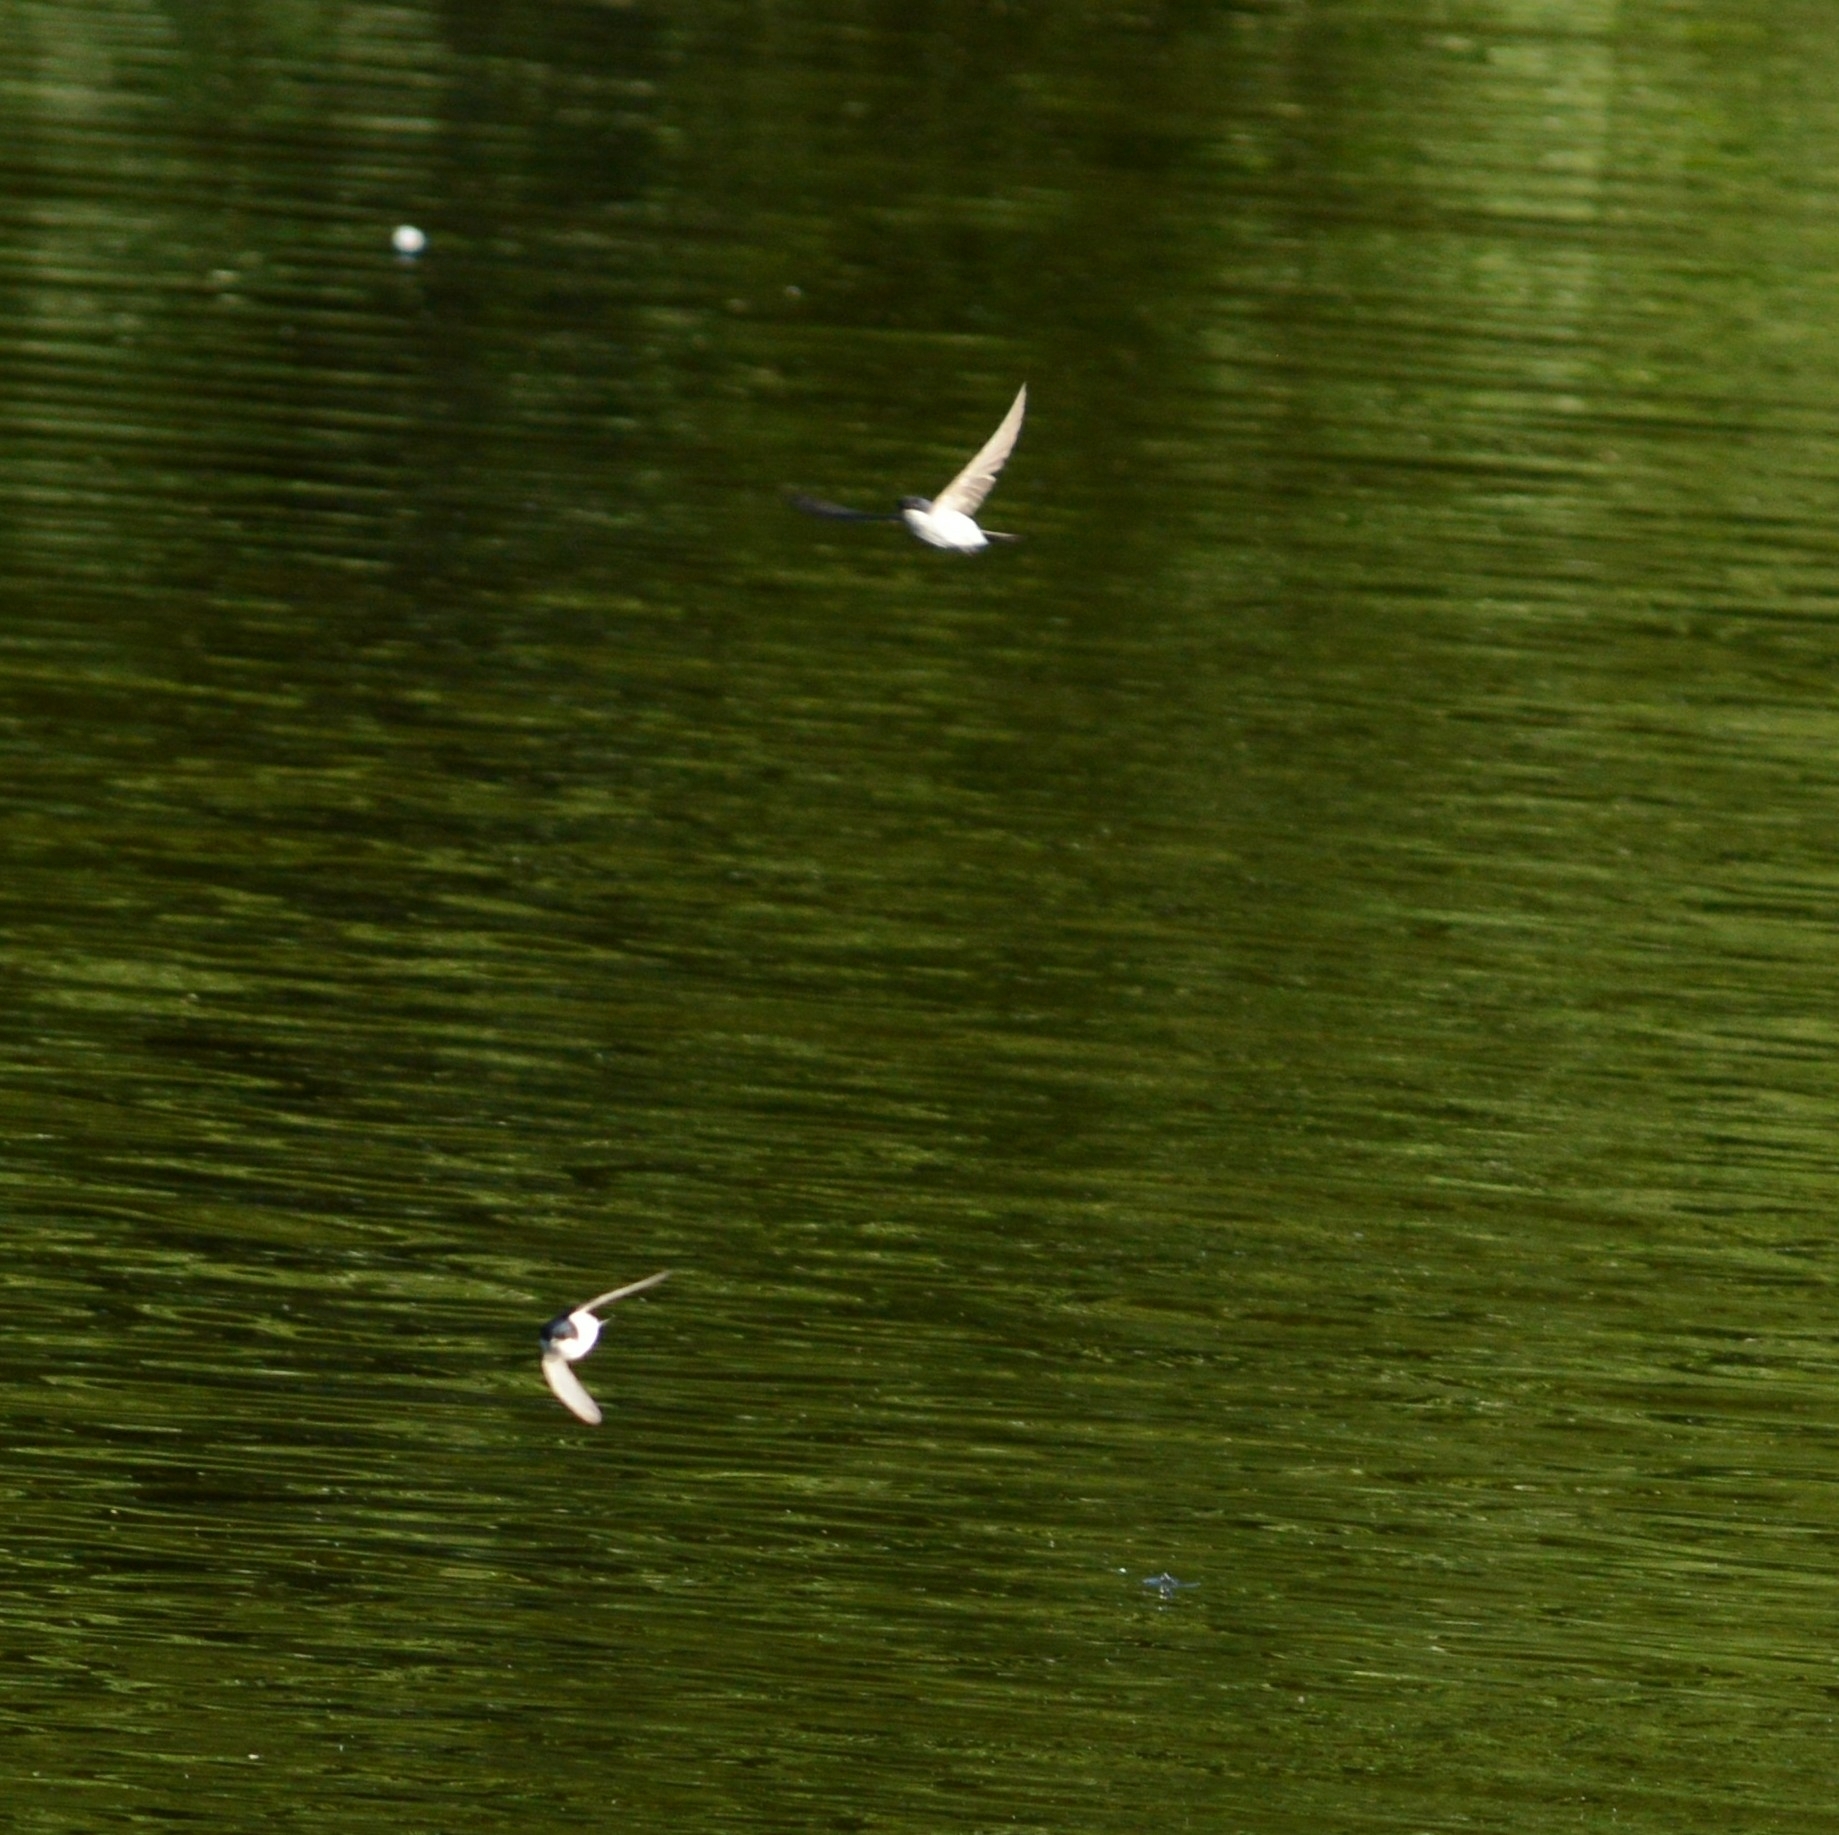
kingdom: Animalia
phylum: Chordata
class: Aves
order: Passeriformes
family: Hirundinidae
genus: Delichon
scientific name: Delichon urbicum
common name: Common house martin
